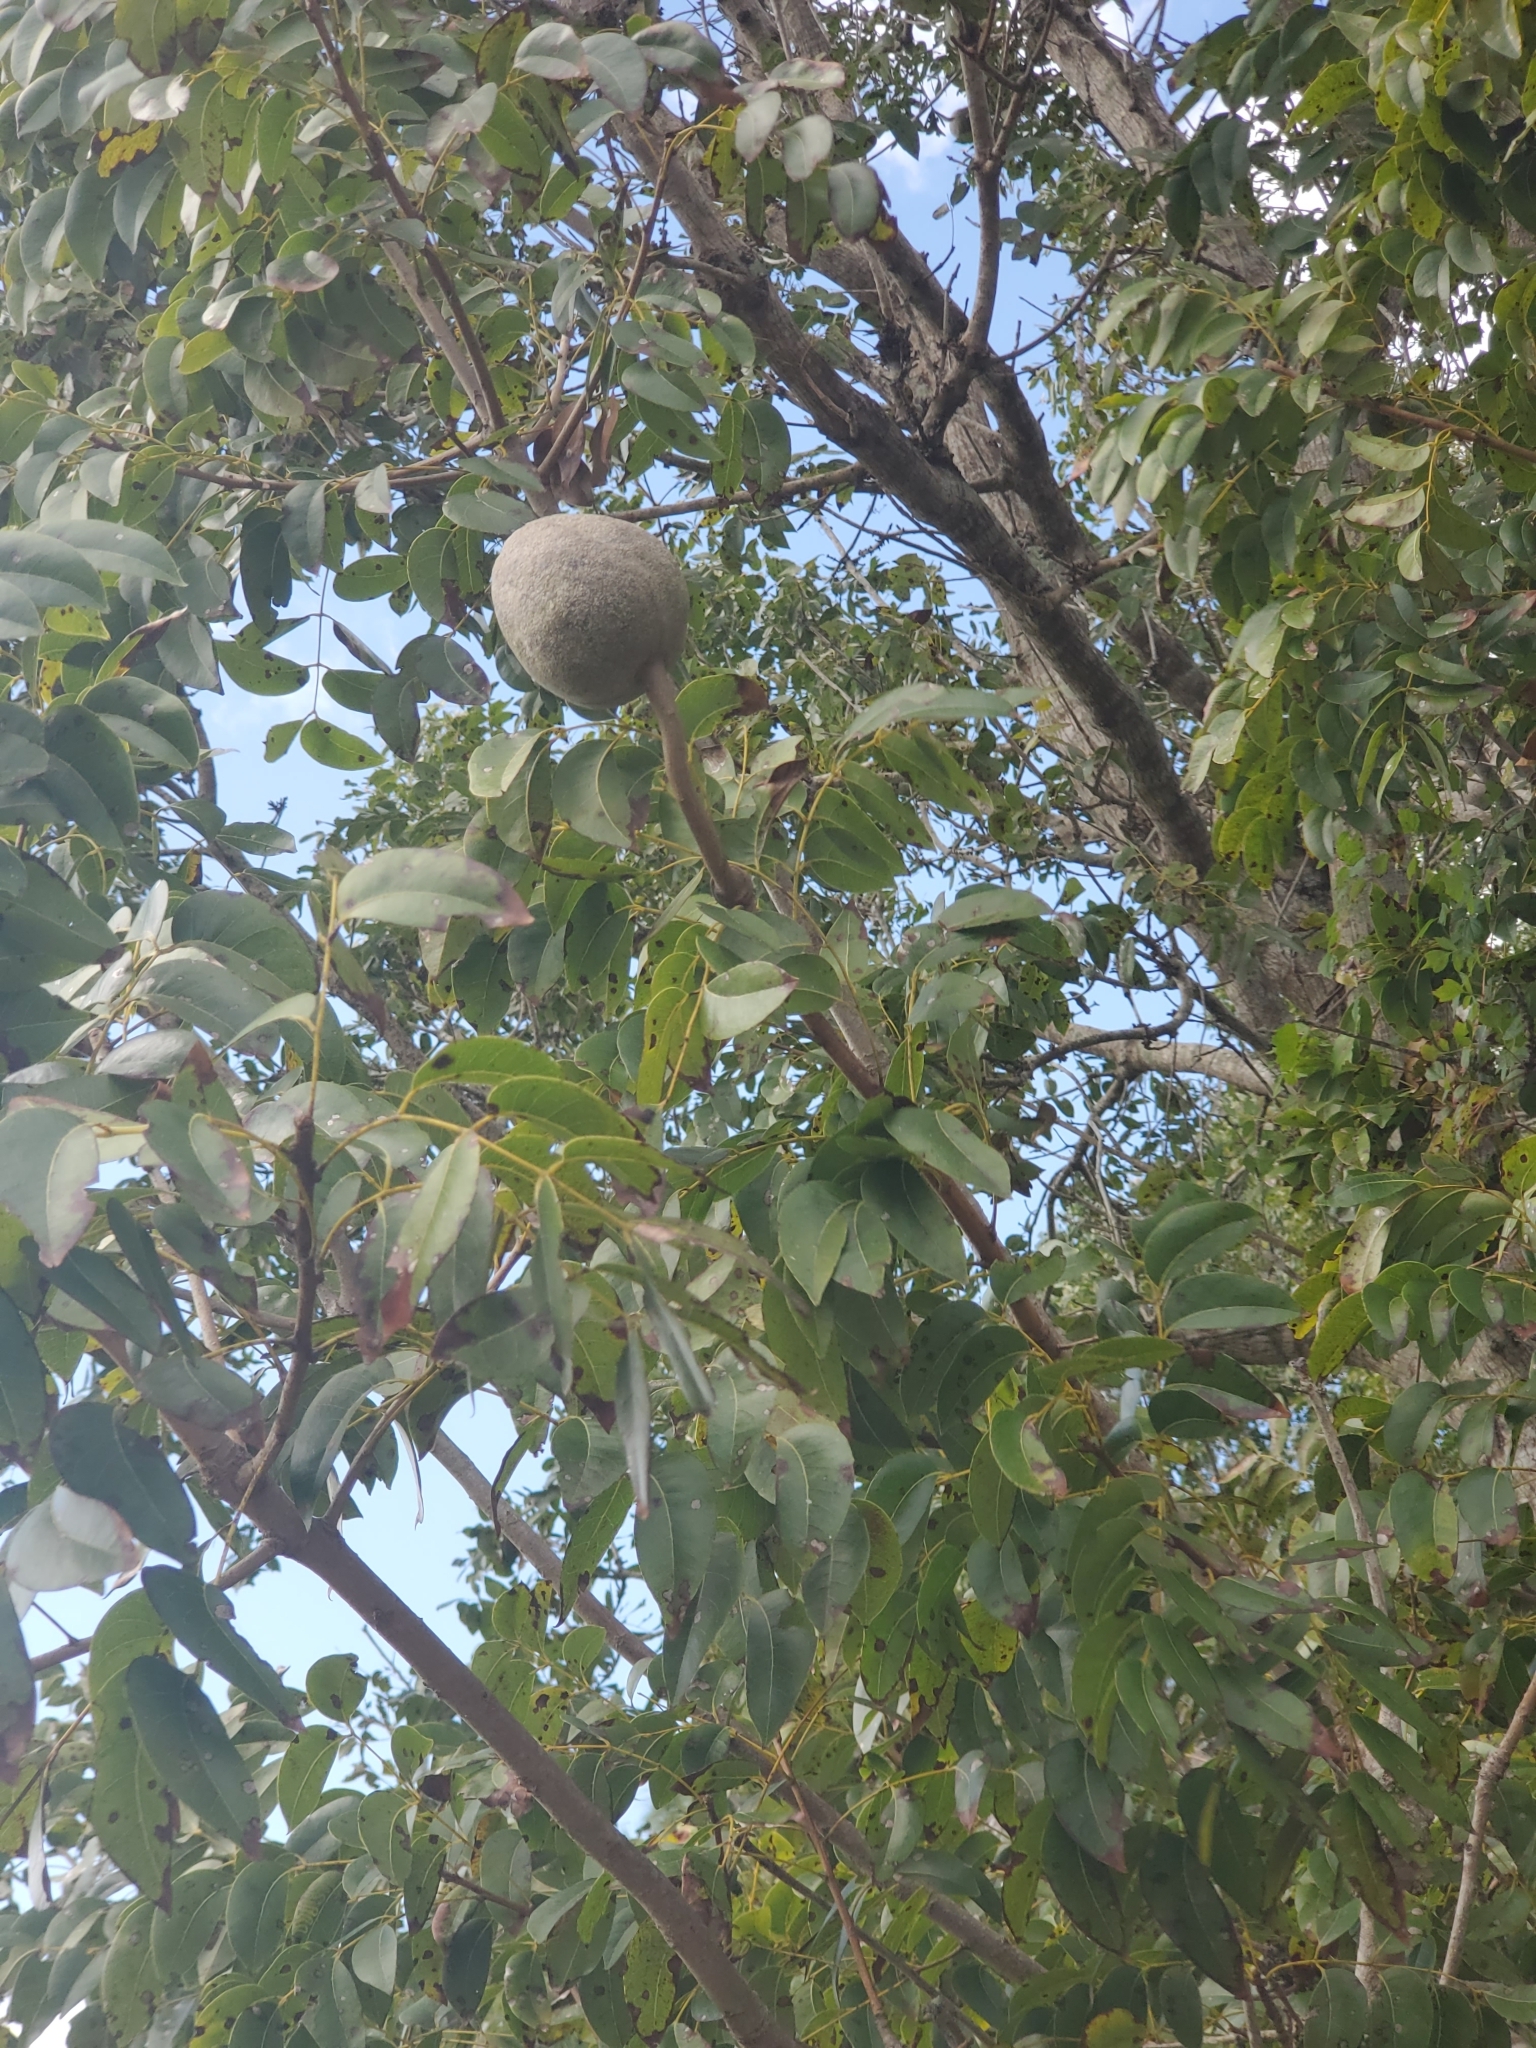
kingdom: Plantae
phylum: Tracheophyta
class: Magnoliopsida
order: Sapindales
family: Meliaceae
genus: Swietenia
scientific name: Swietenia mahagoni
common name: West indian mahogany
